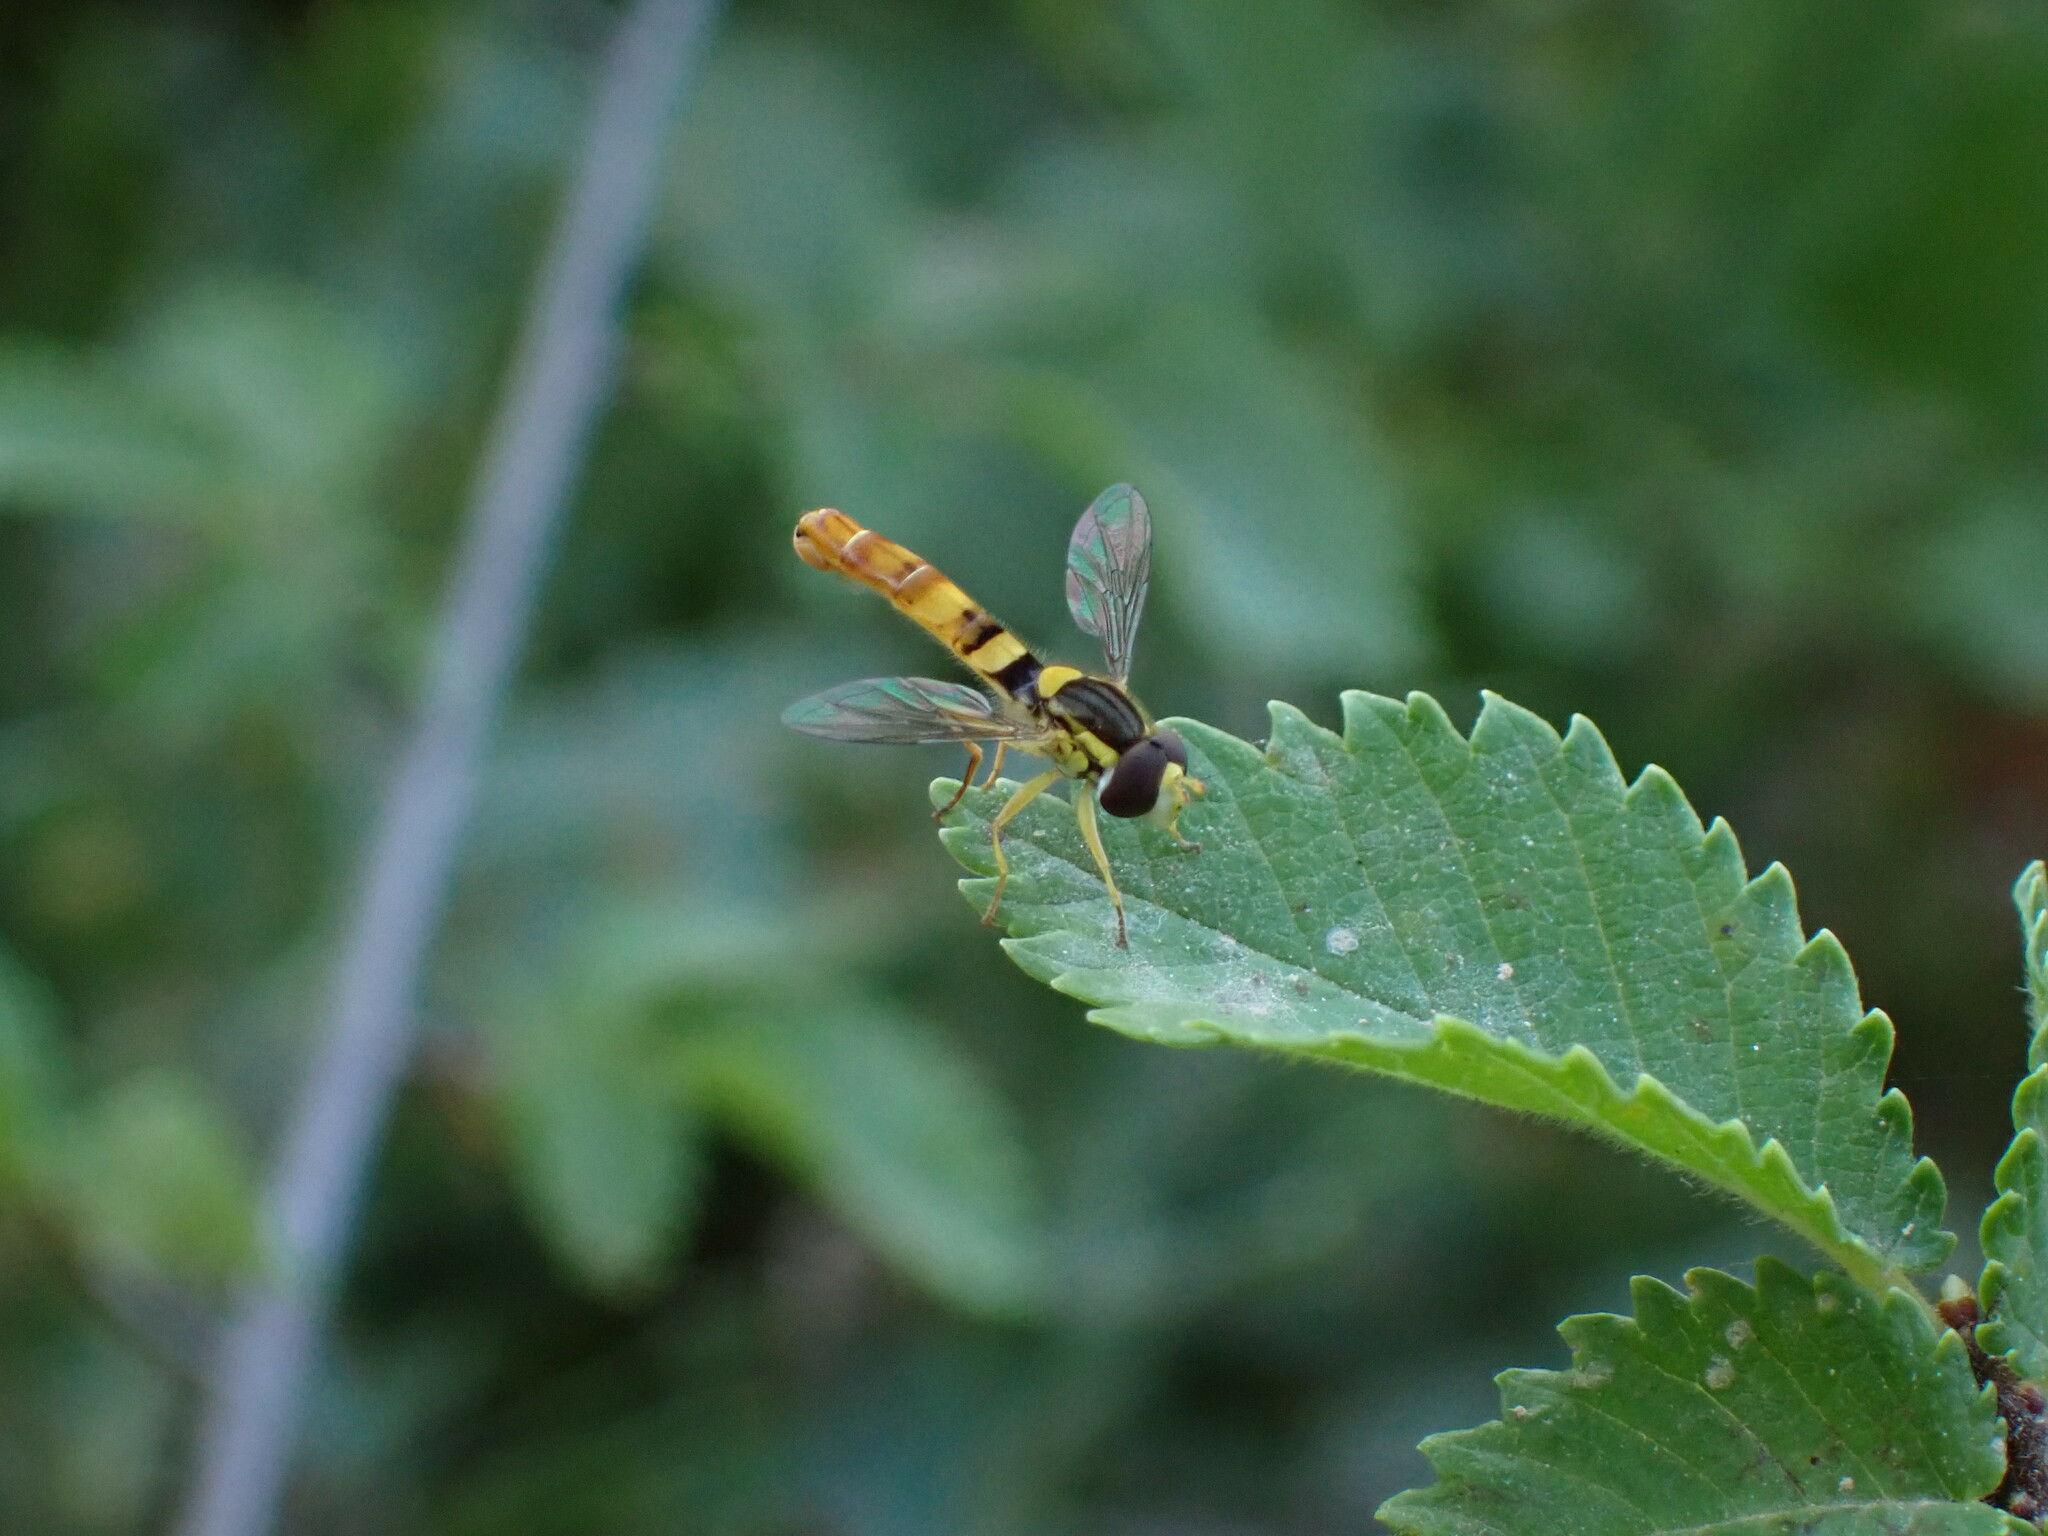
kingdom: Animalia
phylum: Arthropoda
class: Insecta
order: Diptera
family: Syrphidae
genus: Sphaerophoria
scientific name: Sphaerophoria scripta
